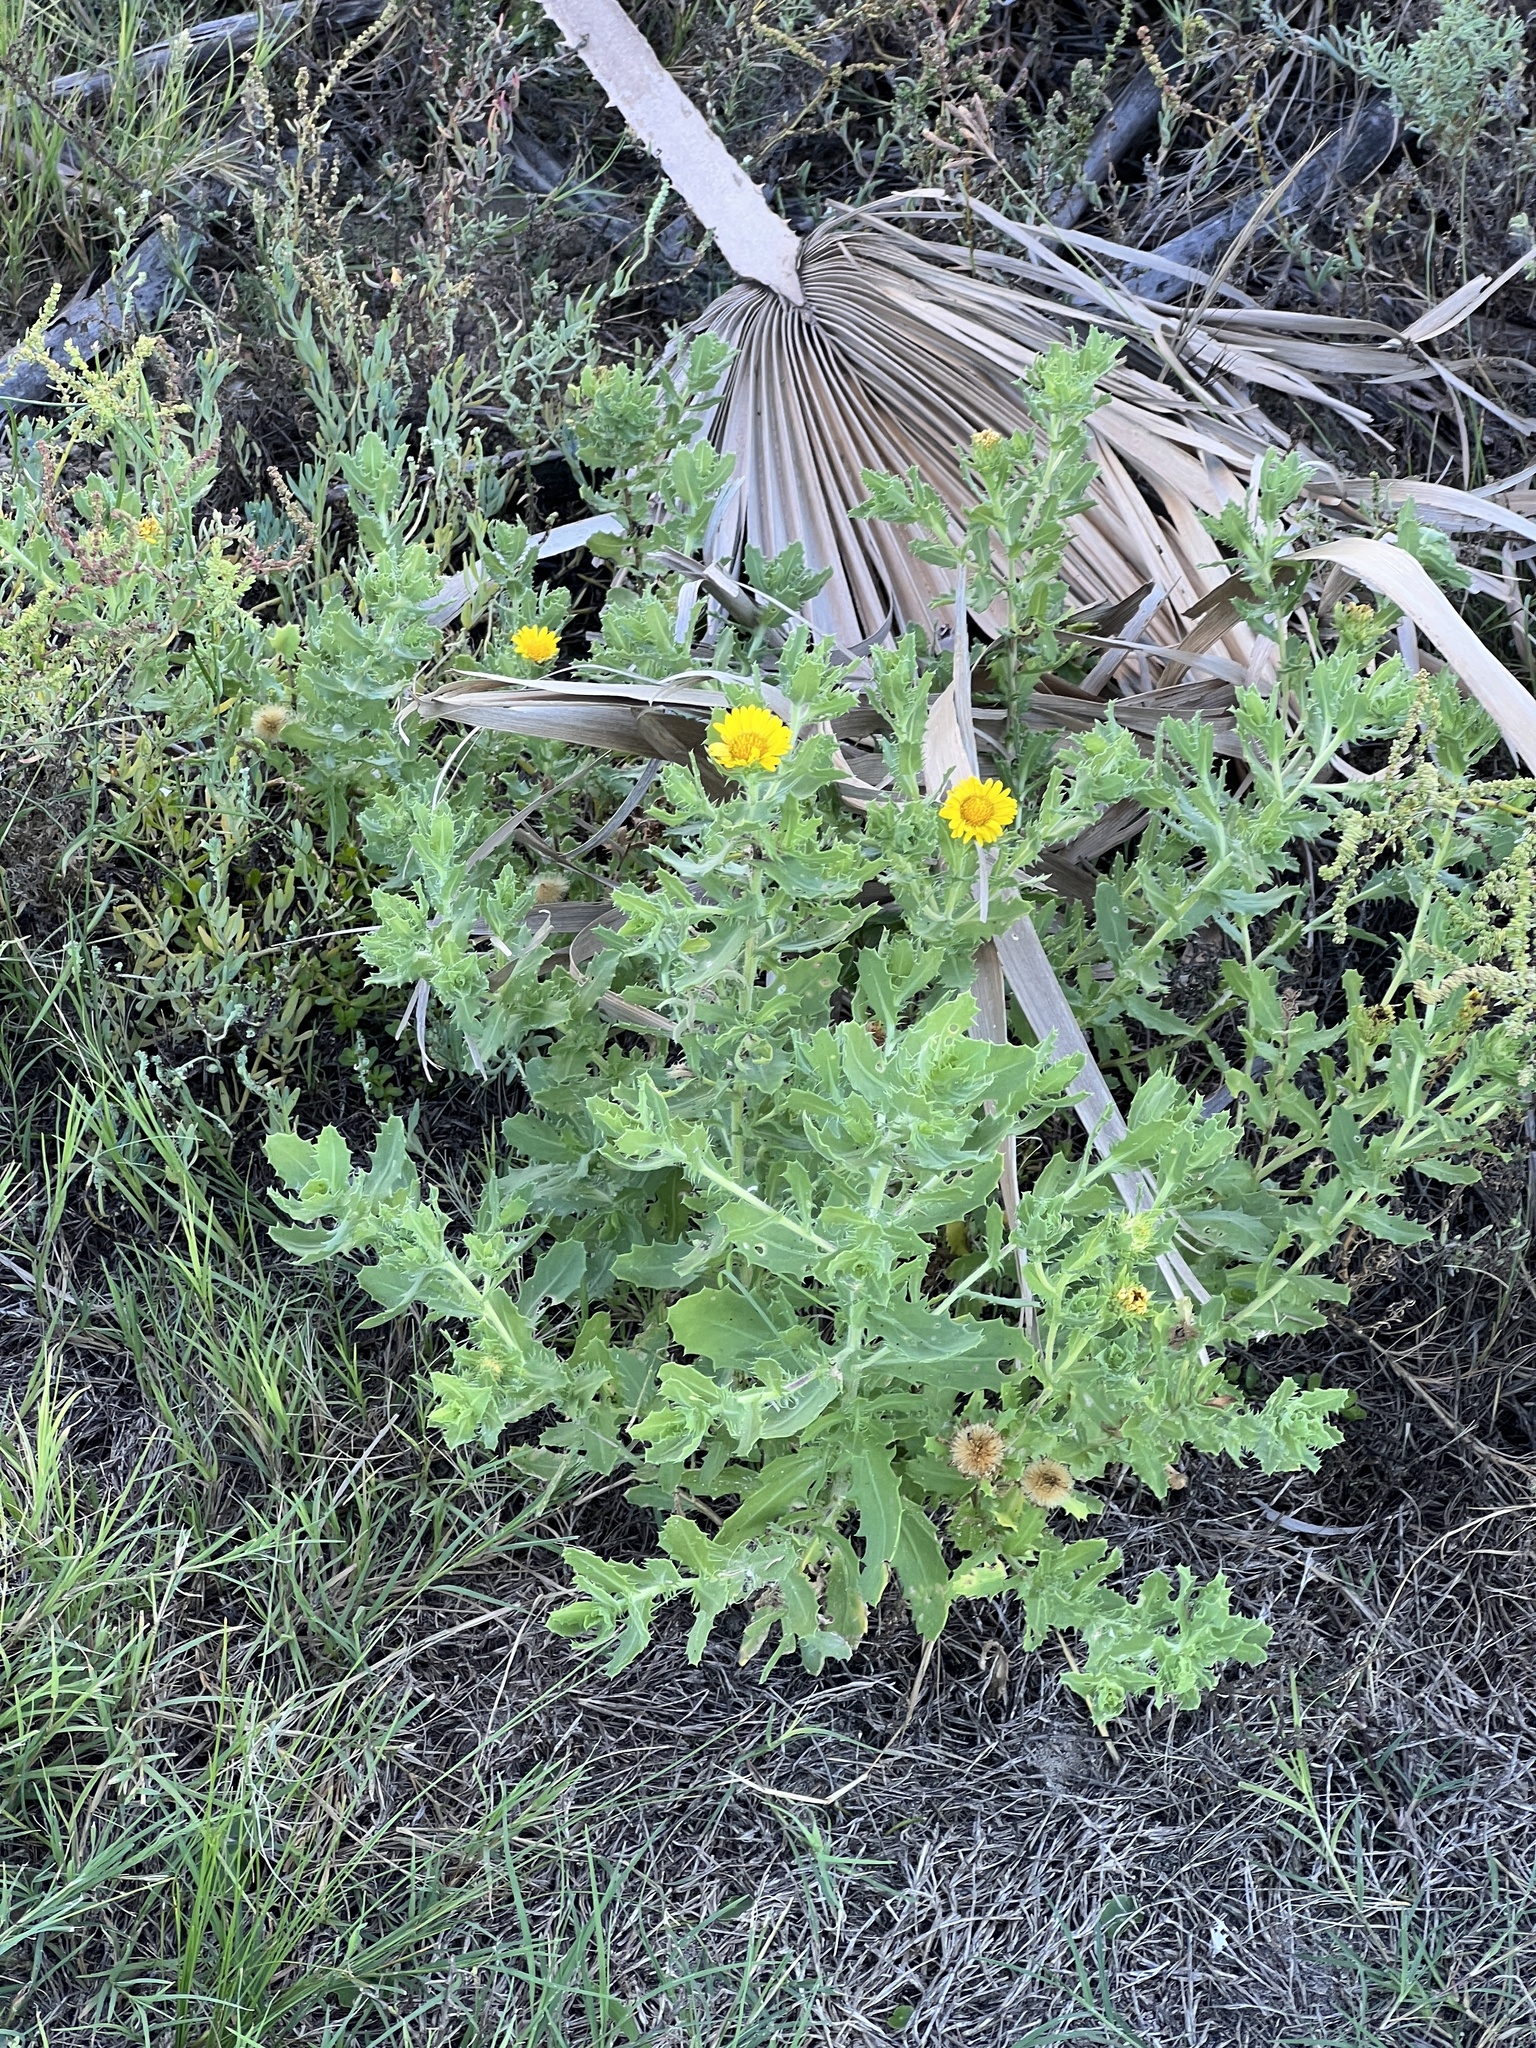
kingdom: Plantae
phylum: Tracheophyta
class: Magnoliopsida
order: Asterales
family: Asteraceae
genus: Rayjacksonia
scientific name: Rayjacksonia phyllocephala
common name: Gulf coast camphor daisy
